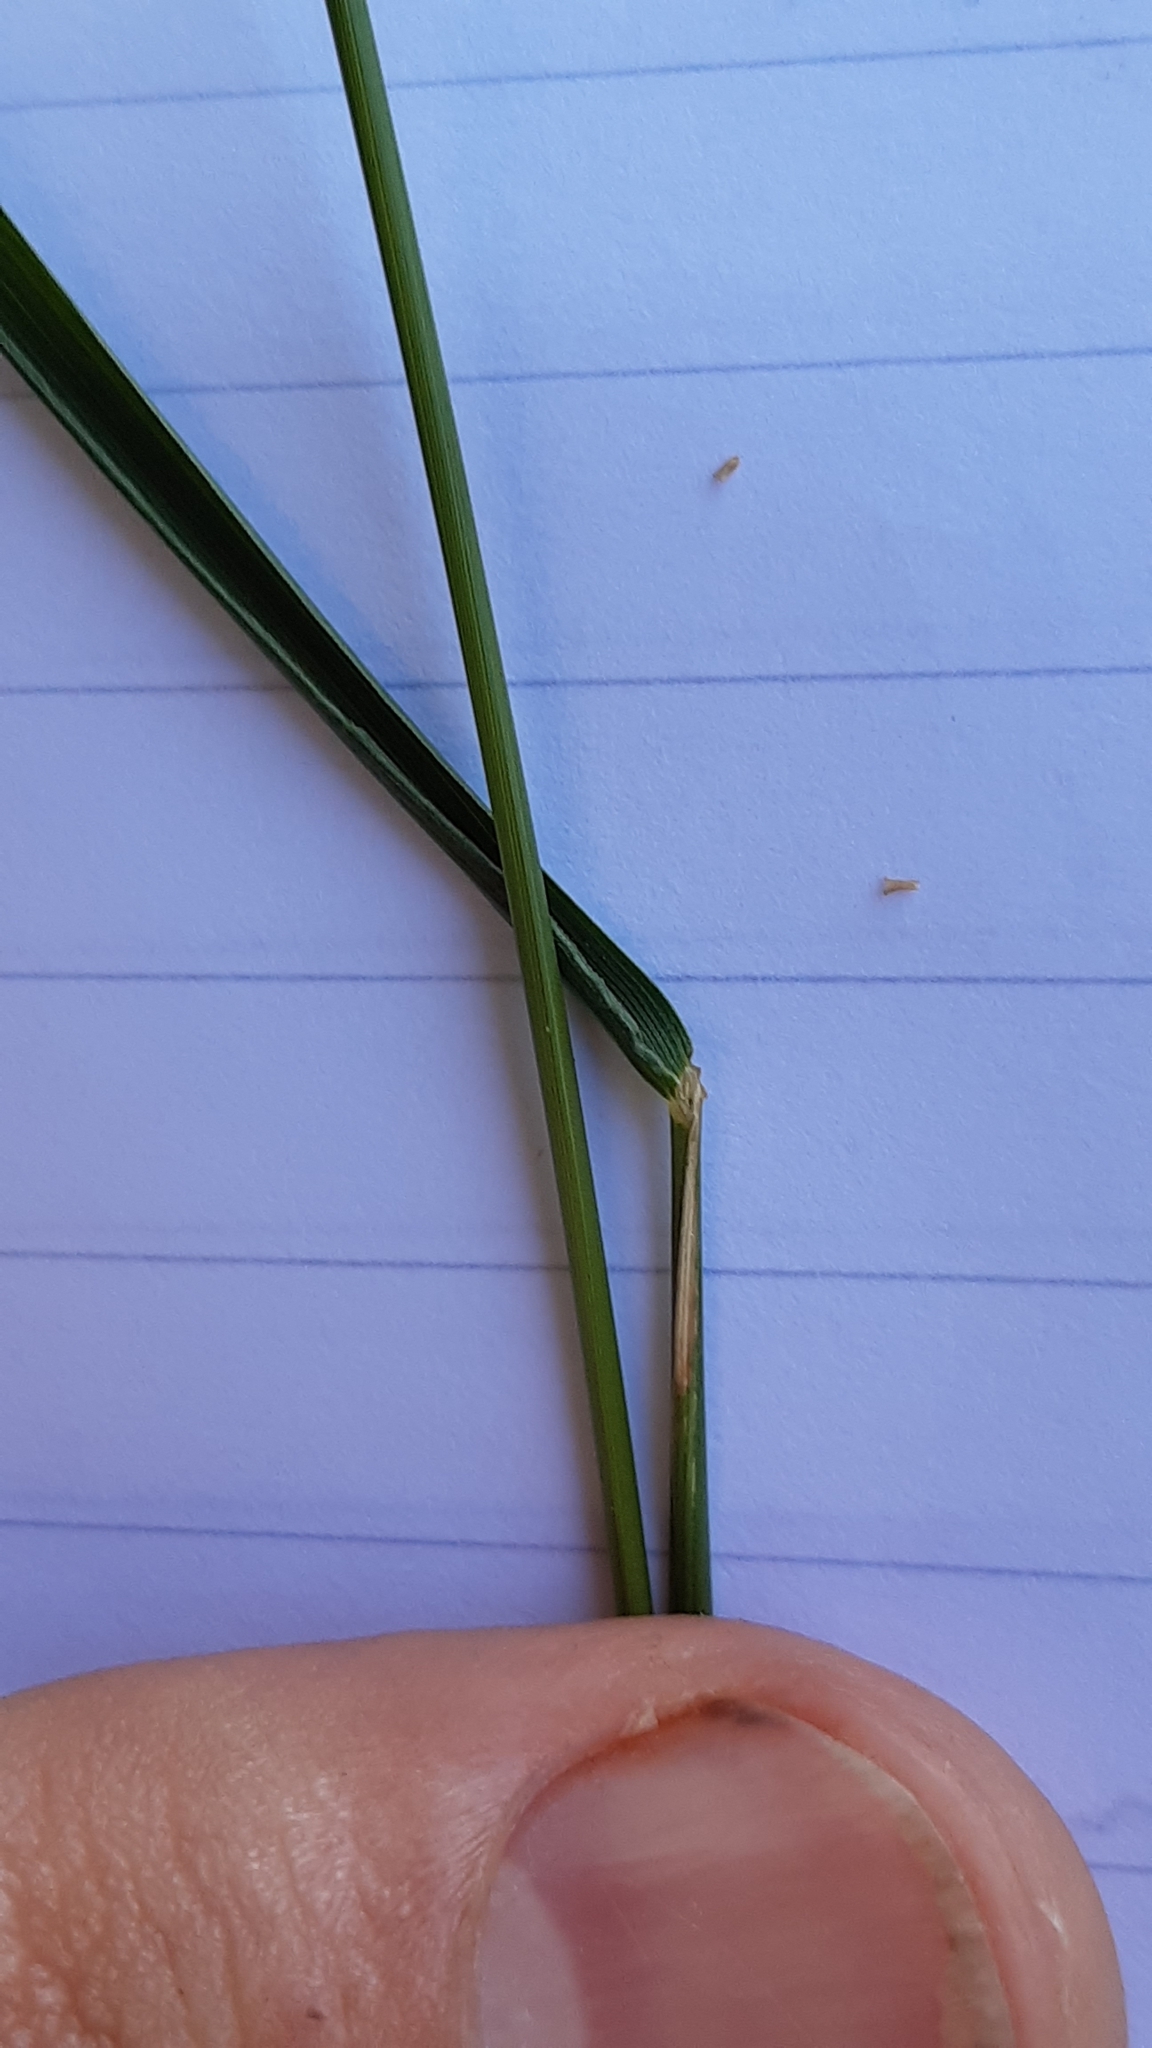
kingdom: Plantae
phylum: Tracheophyta
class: Liliopsida
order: Poales
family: Poaceae
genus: Agrostis
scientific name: Agrostis capillaris
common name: Colonial bentgrass
